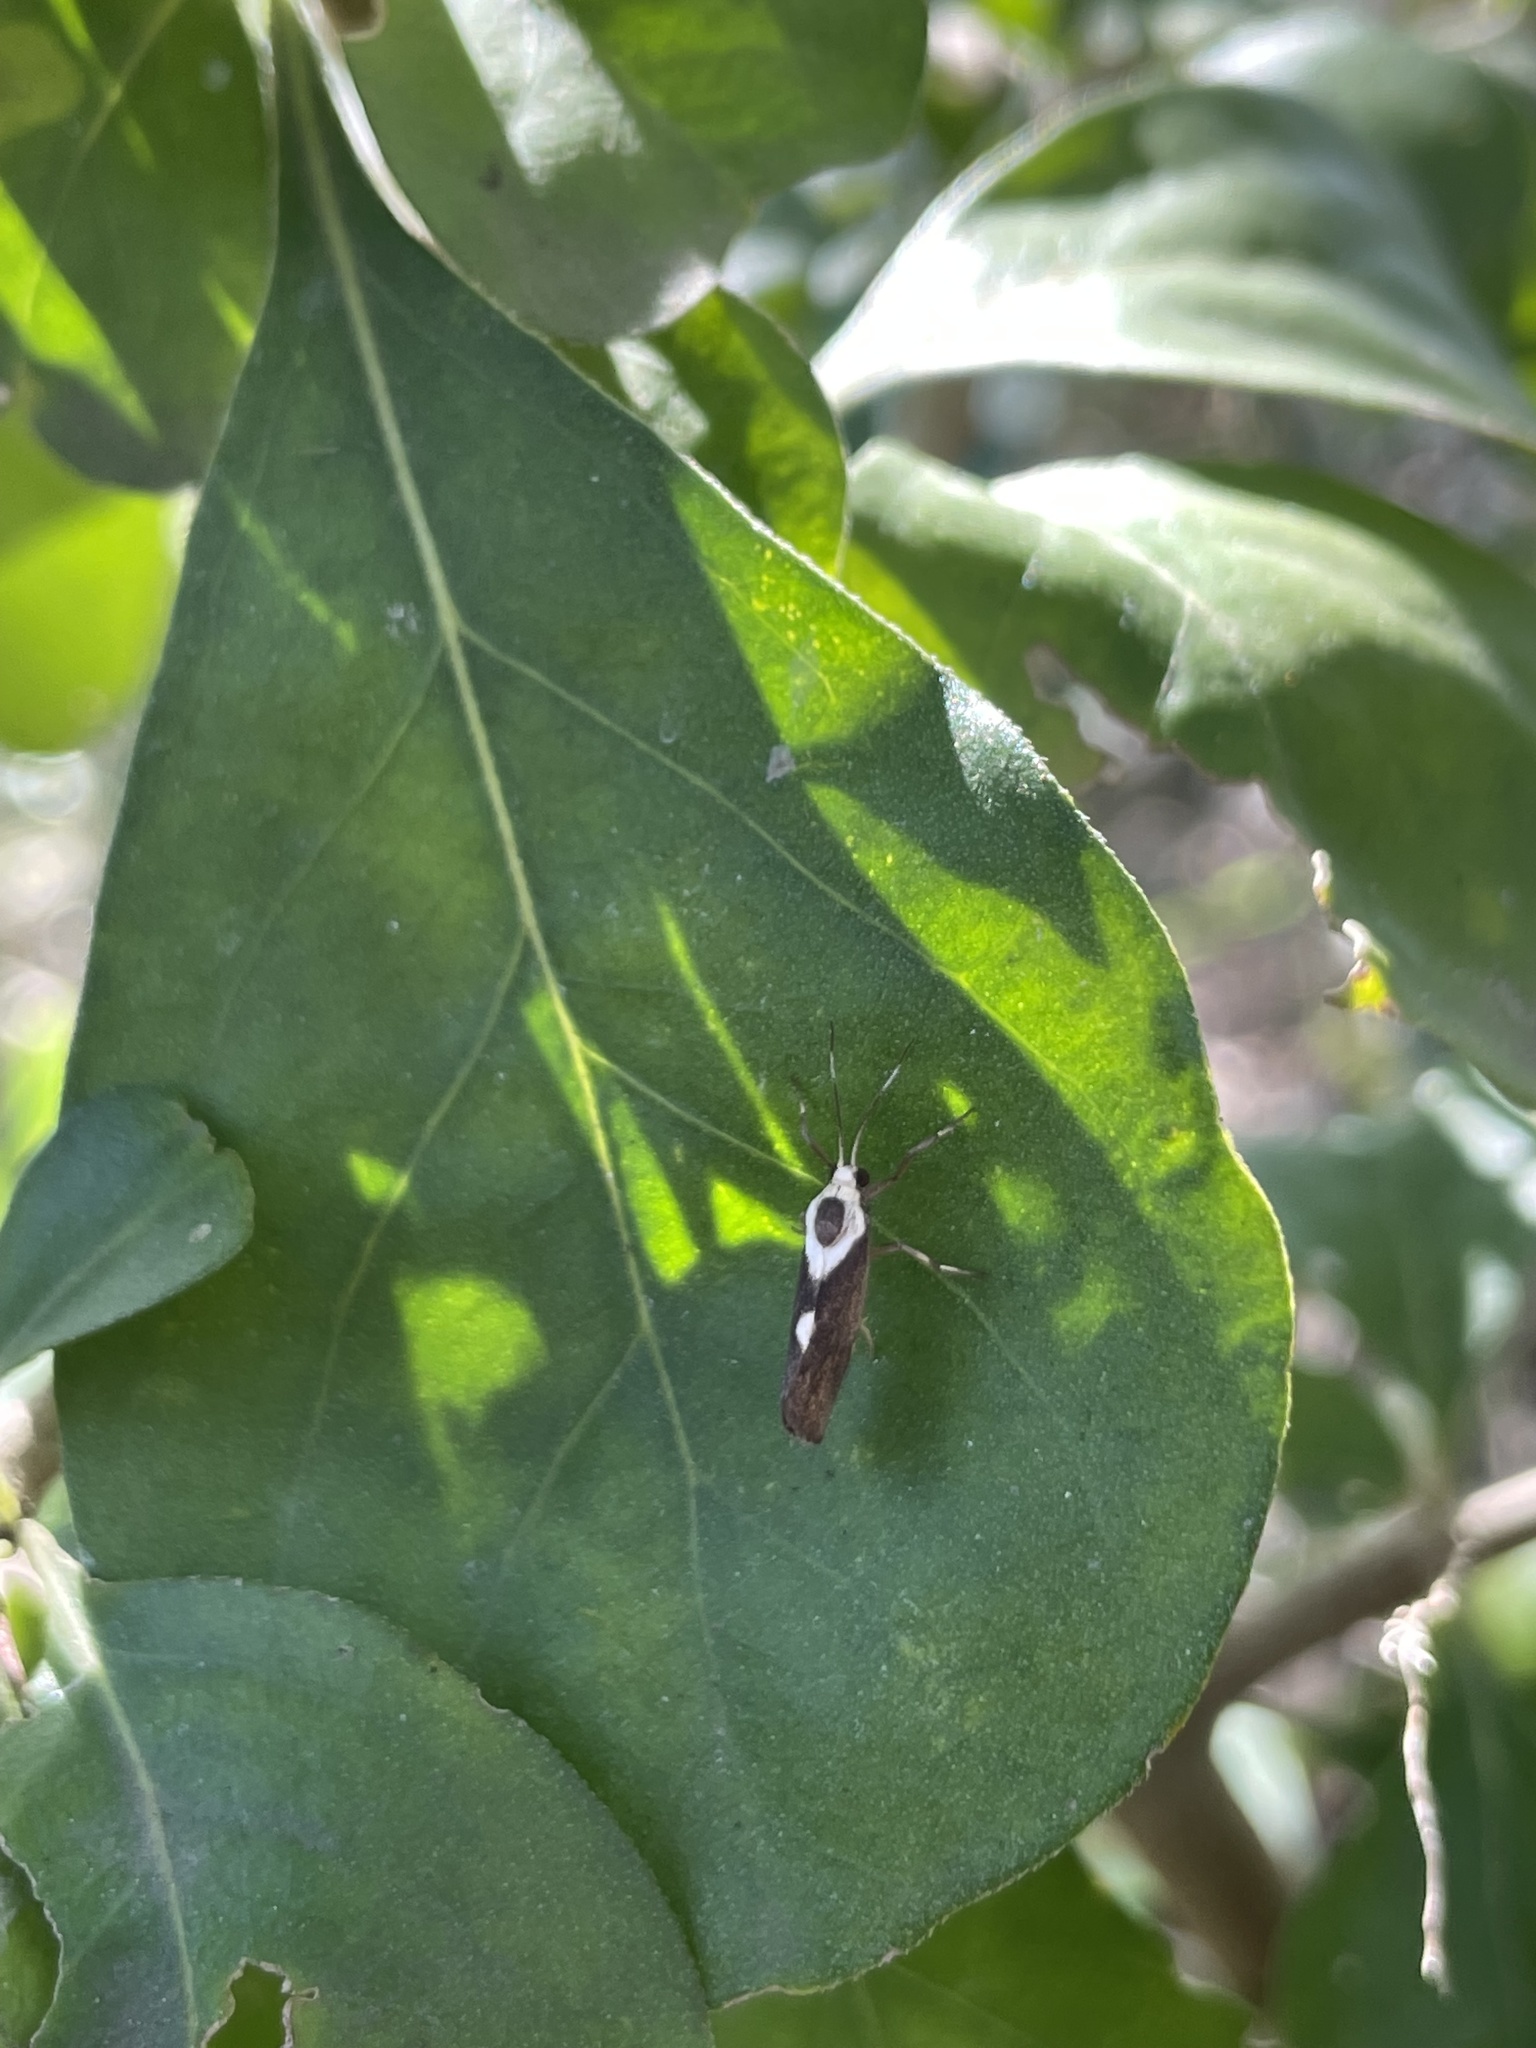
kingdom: Animalia
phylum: Arthropoda
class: Insecta
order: Lepidoptera
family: Erebidae
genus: Cisthene
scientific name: Cisthene subrufa
